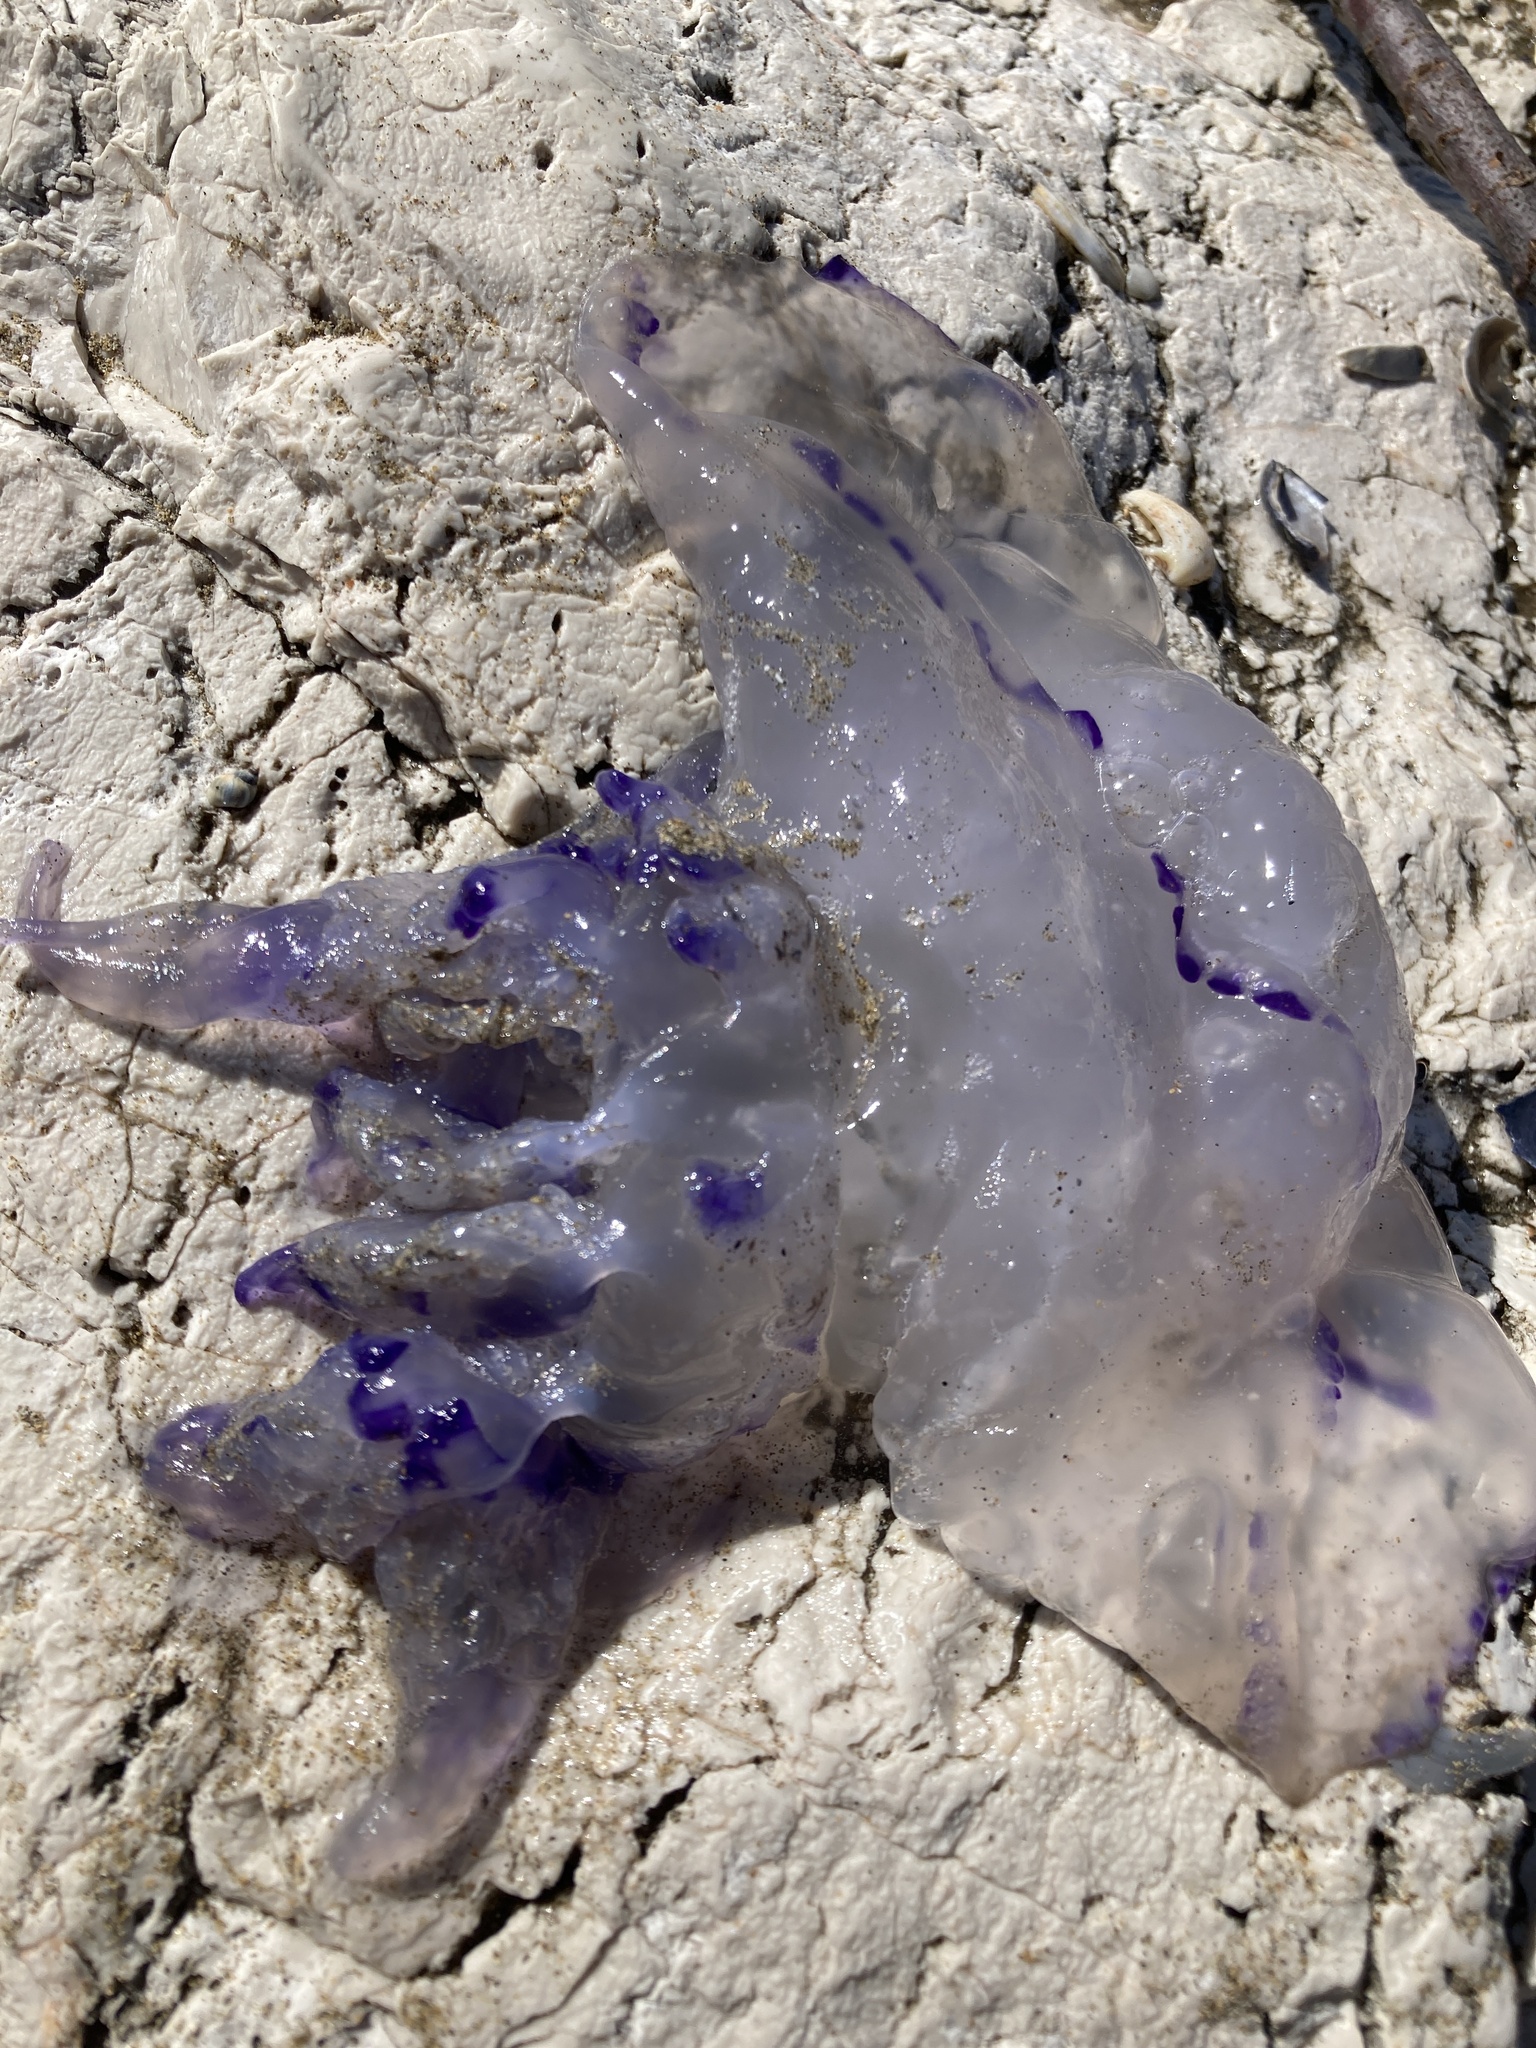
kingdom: Animalia
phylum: Cnidaria
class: Scyphozoa
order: Rhizostomeae
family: Rhizostomatidae
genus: Rhizostoma
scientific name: Rhizostoma pulmo
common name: Barrel jellyfish
